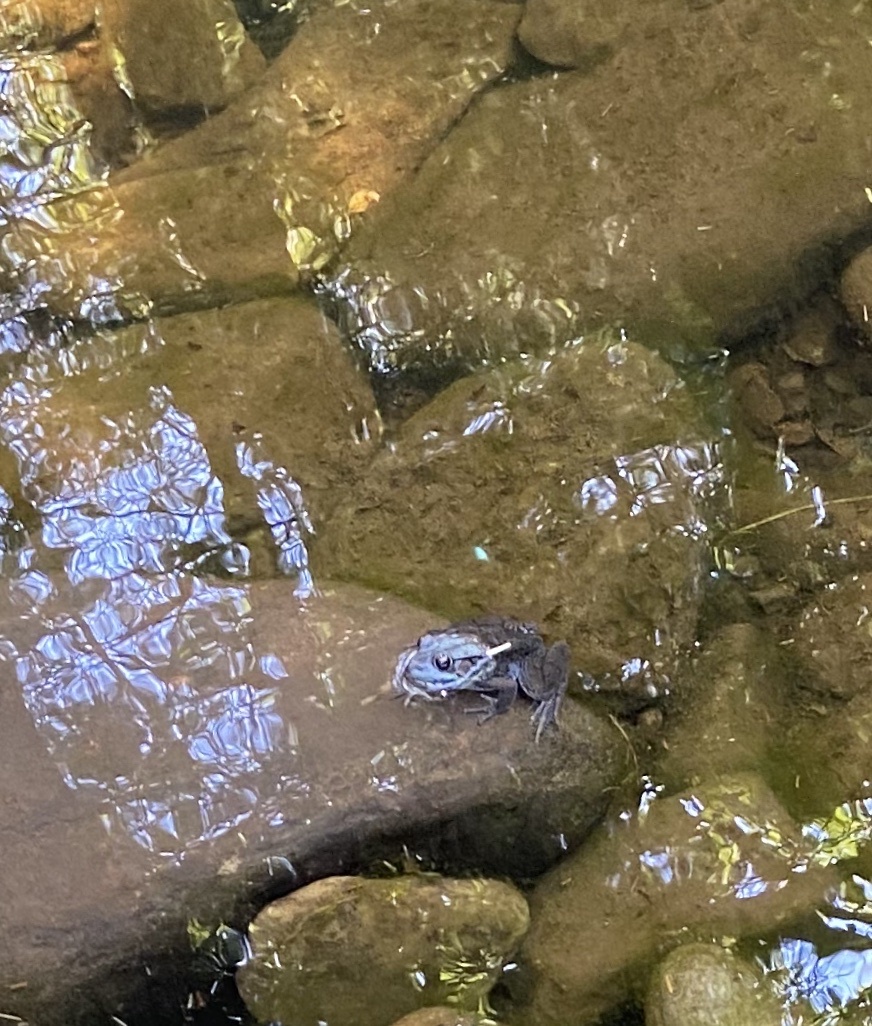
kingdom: Animalia
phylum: Chordata
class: Amphibia
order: Anura
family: Ranidae
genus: Lithobates
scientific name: Lithobates clamitans
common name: Green frog
